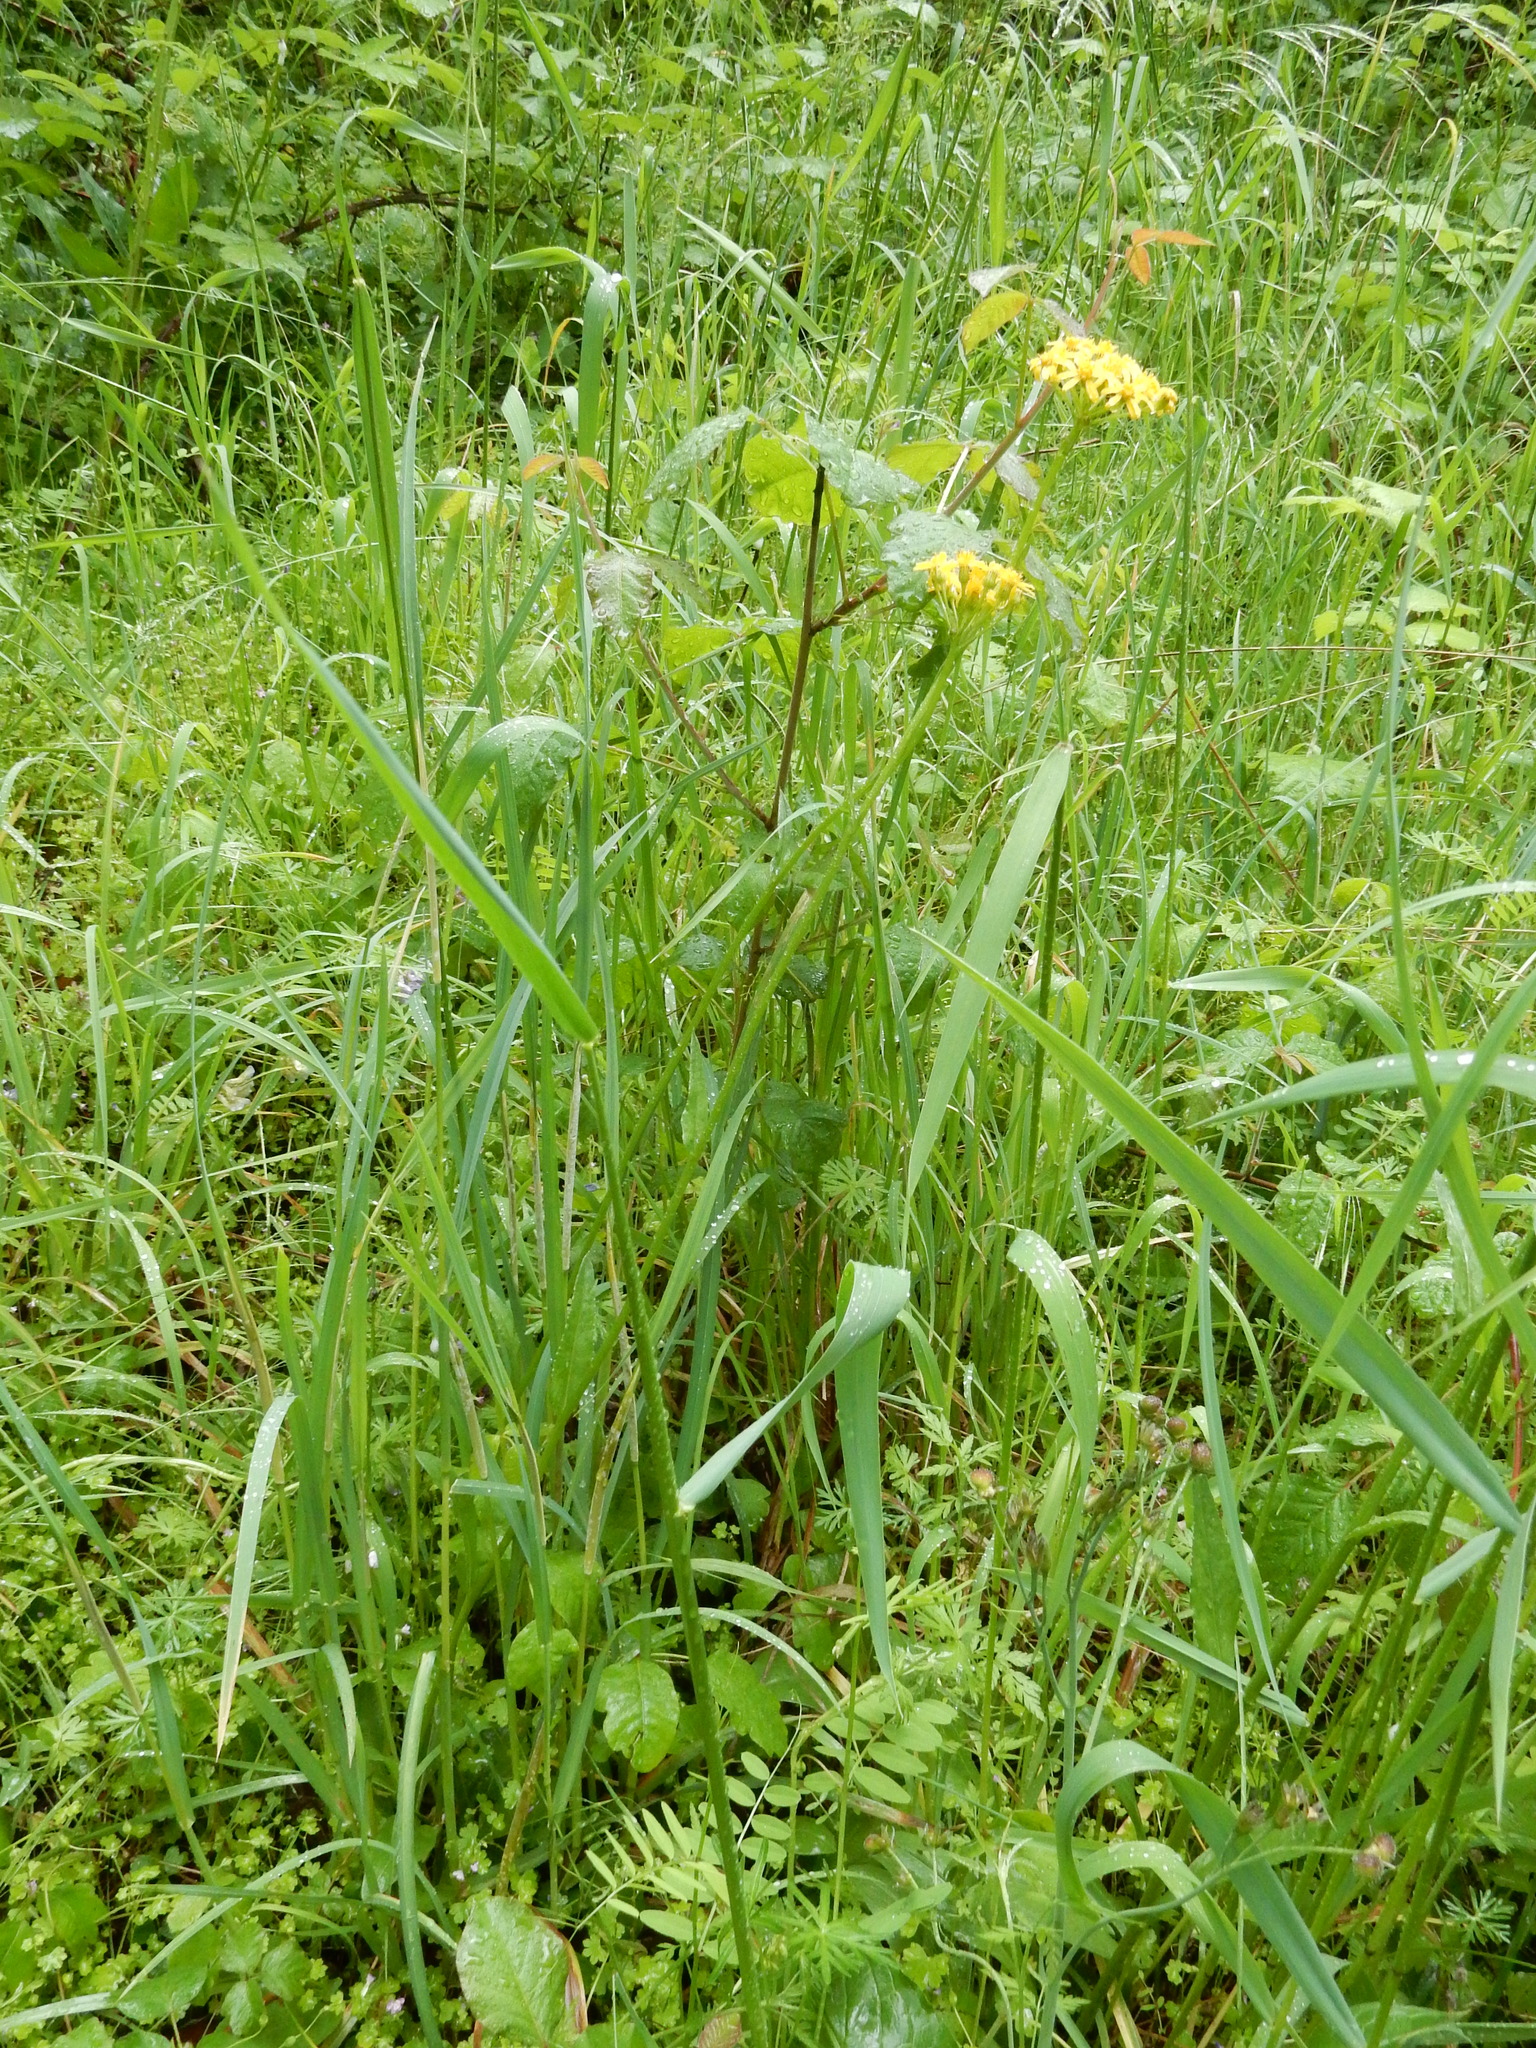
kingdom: Plantae
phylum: Tracheophyta
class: Magnoliopsida
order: Asterales
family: Asteraceae
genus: Senecio
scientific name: Senecio integerrimus
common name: Gaugeplant
